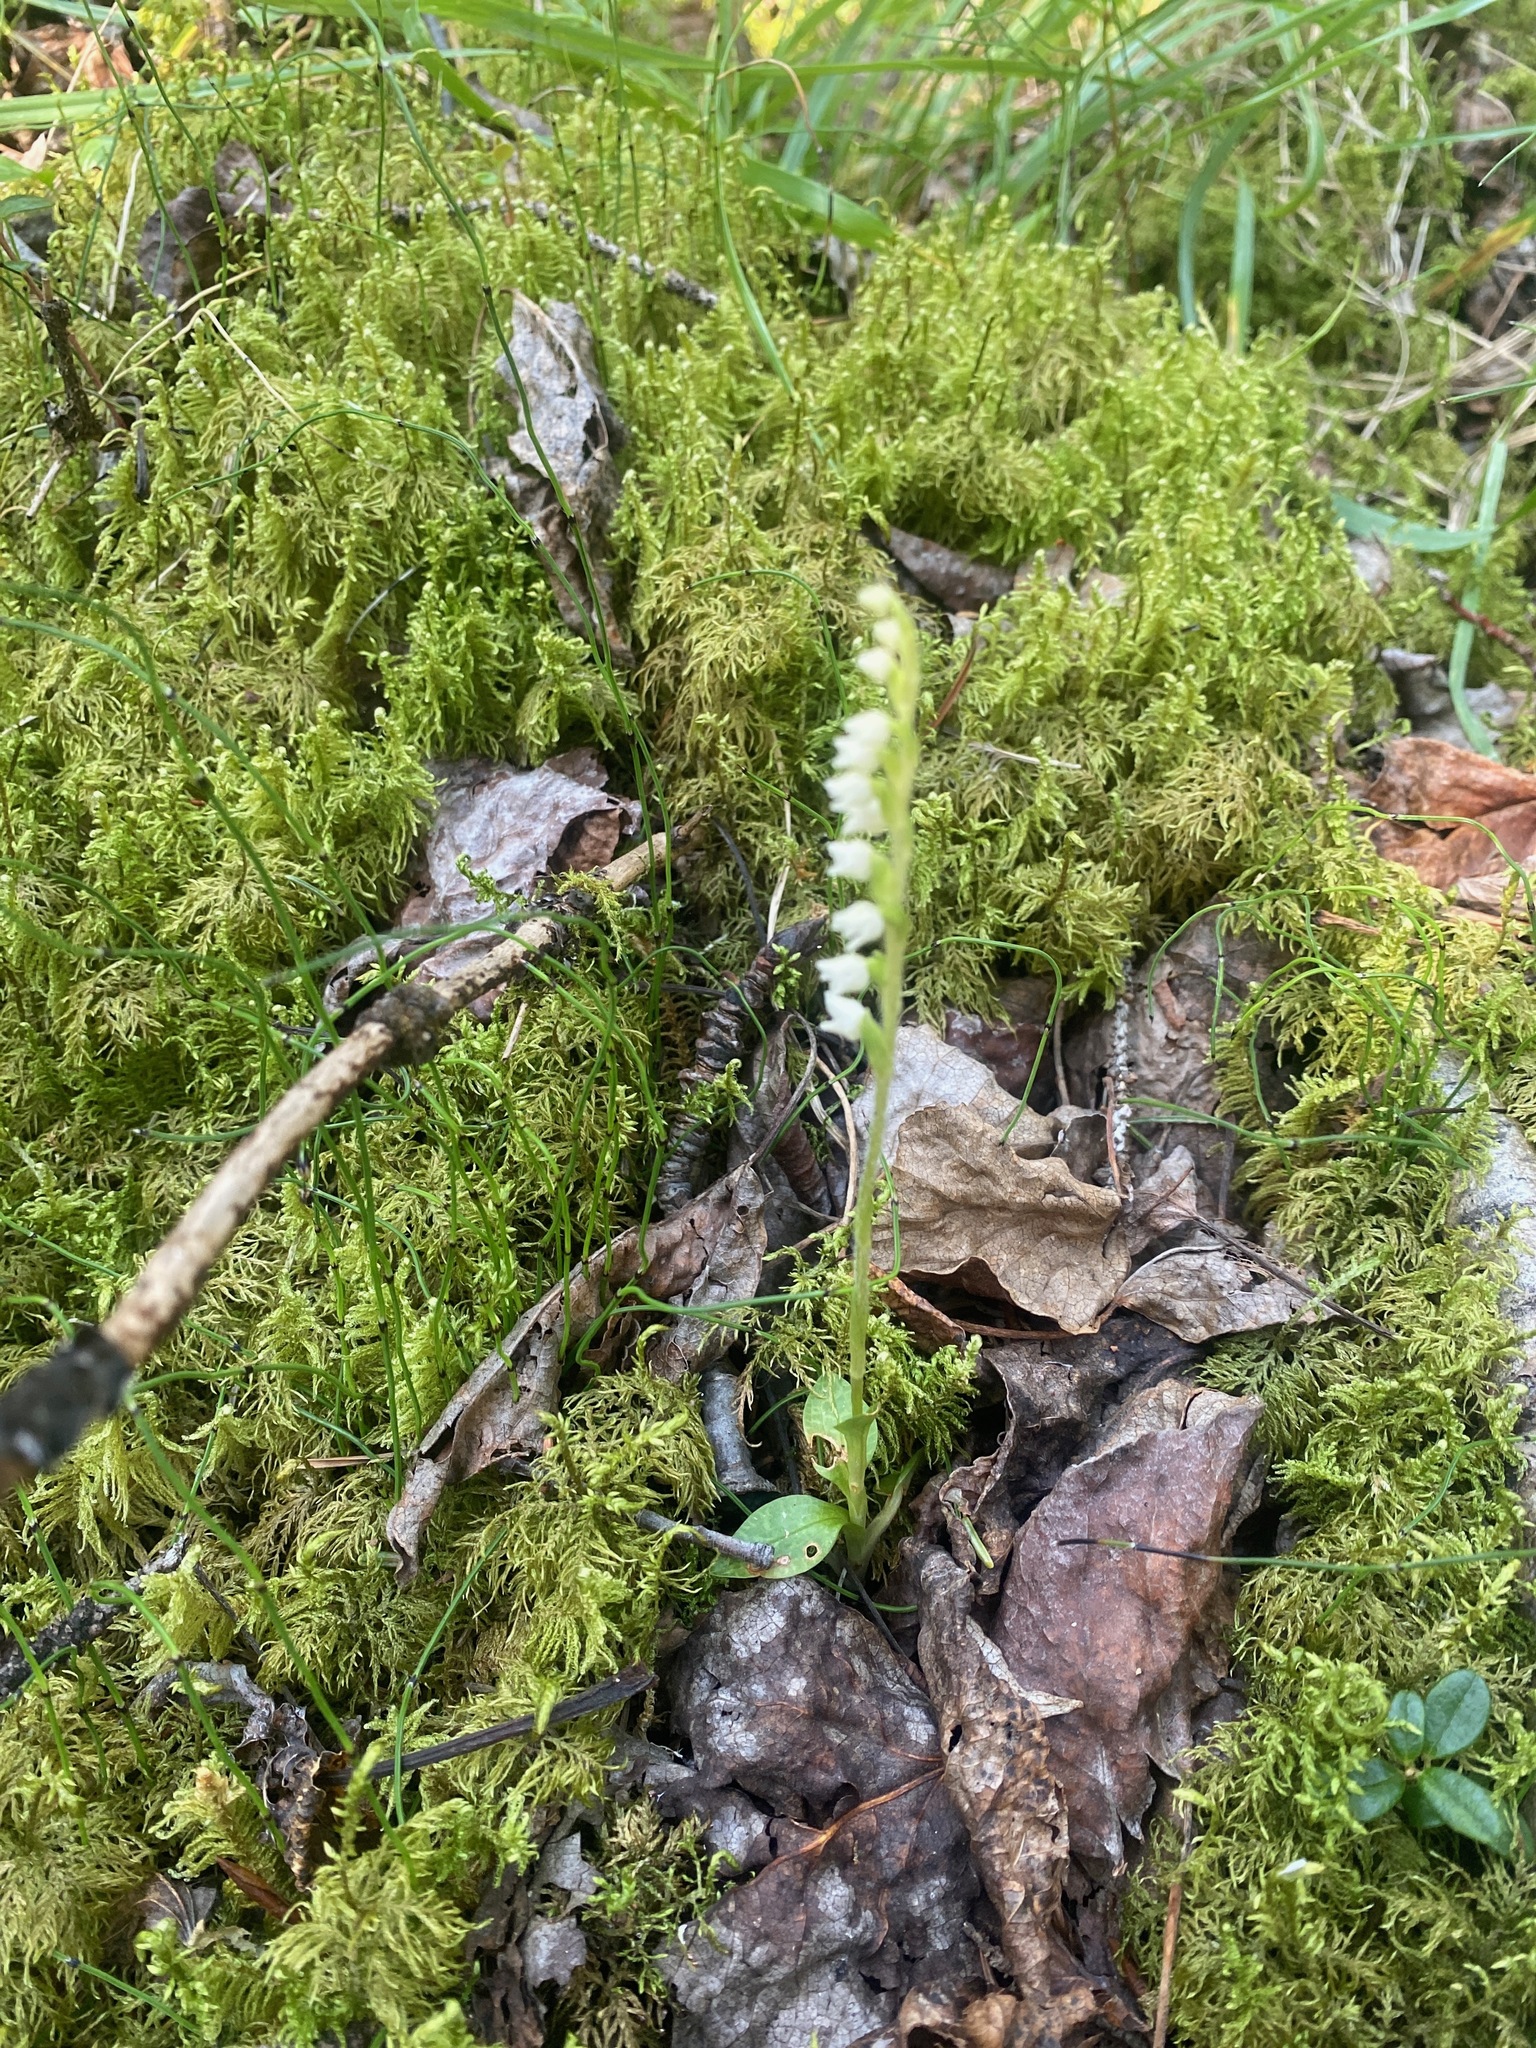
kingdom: Plantae
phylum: Tracheophyta
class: Liliopsida
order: Asparagales
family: Orchidaceae
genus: Goodyera
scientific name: Goodyera repens
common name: Creeping lady's-tresses
